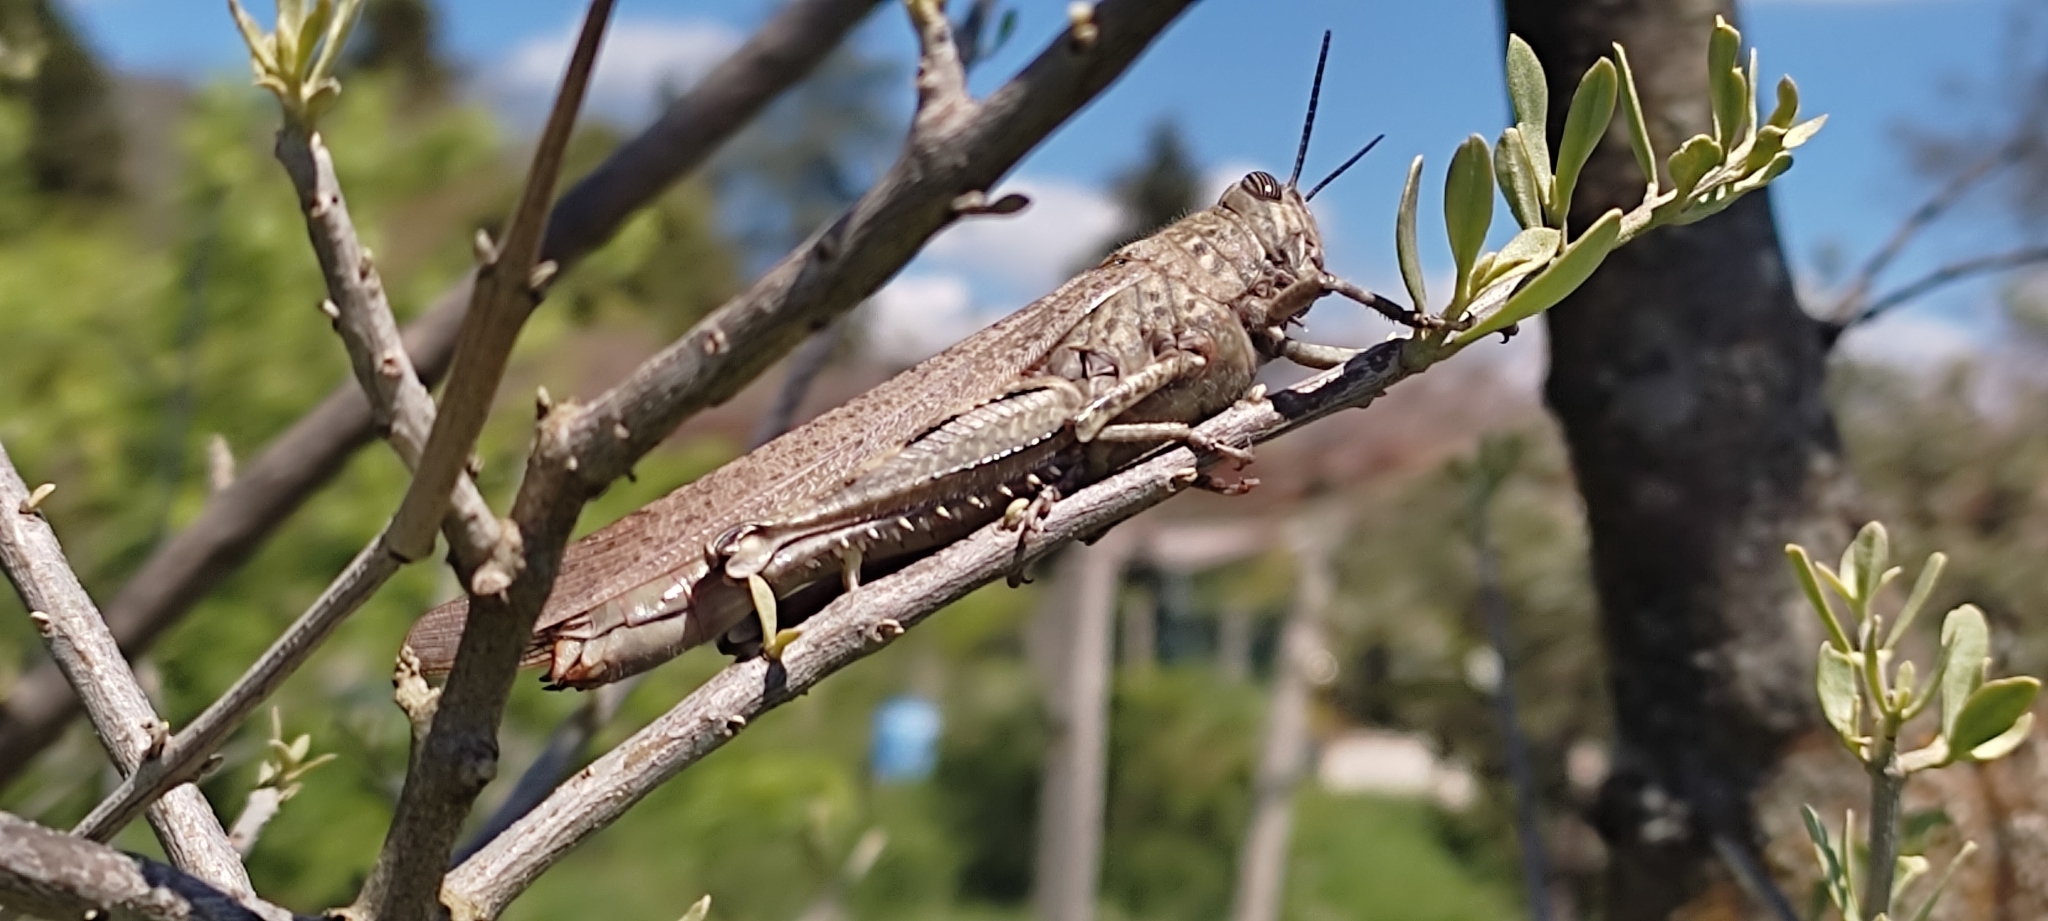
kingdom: Animalia
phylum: Arthropoda
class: Insecta
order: Orthoptera
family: Acrididae
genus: Anacridium
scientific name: Anacridium aegyptium
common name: Egyptian grasshopper
